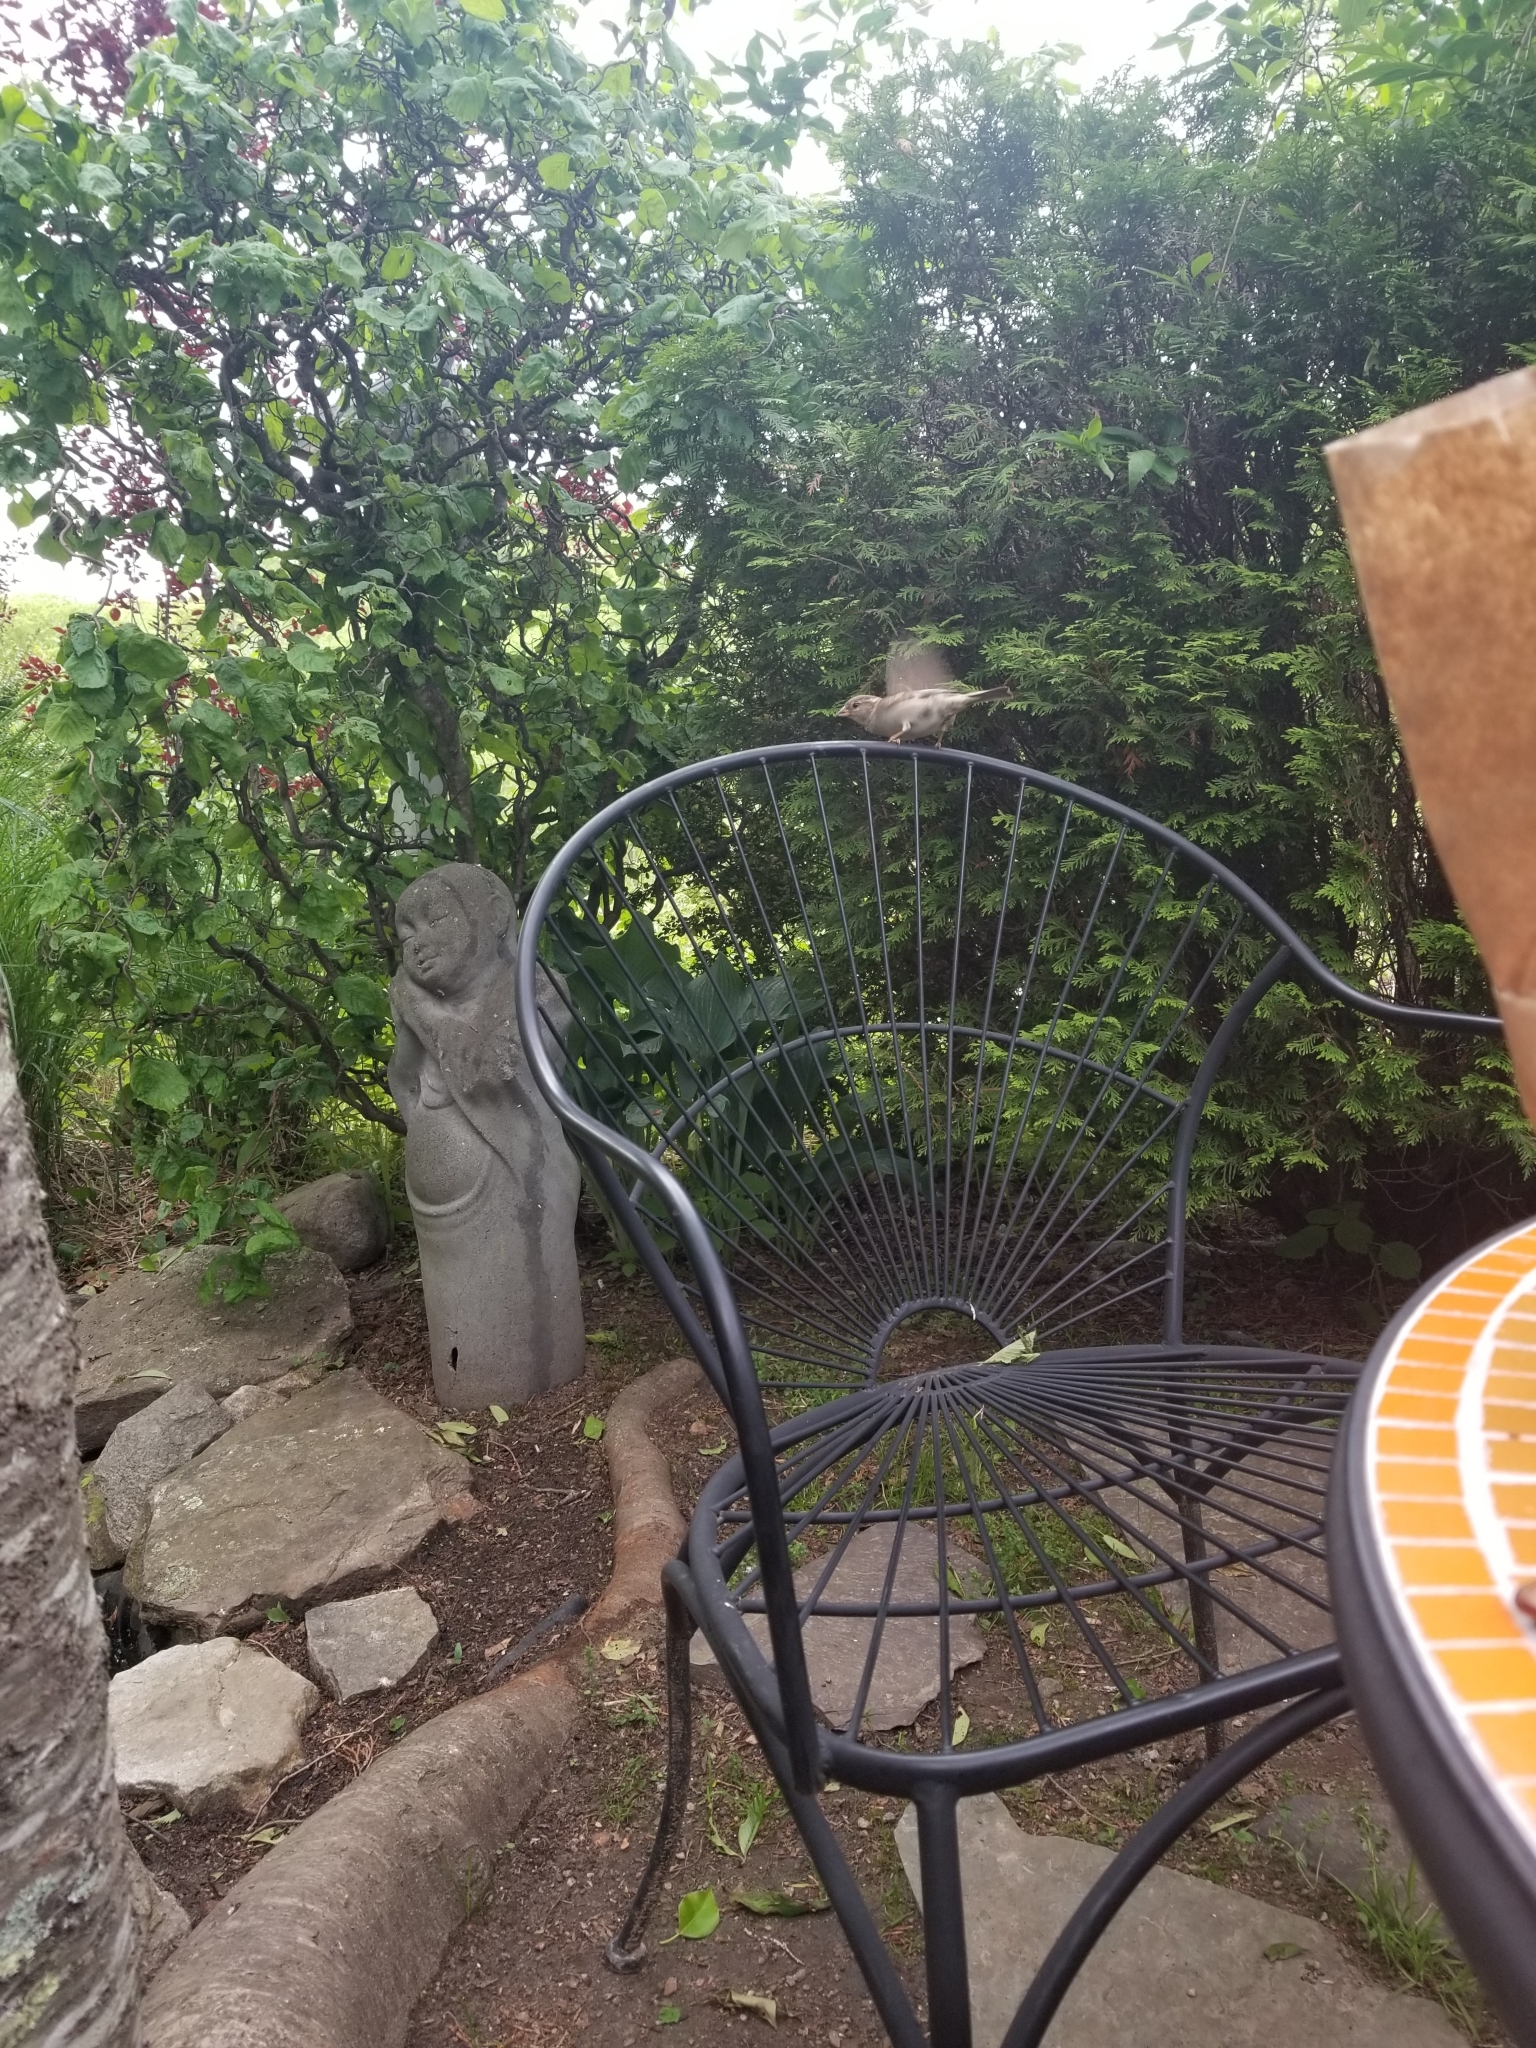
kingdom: Animalia
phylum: Chordata
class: Aves
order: Passeriformes
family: Passeridae
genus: Passer
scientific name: Passer domesticus
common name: House sparrow
